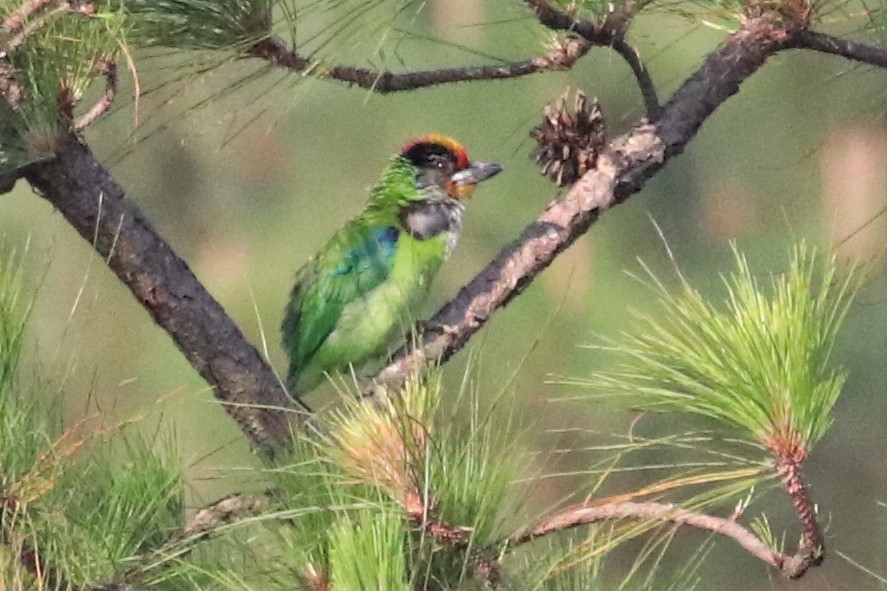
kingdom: Animalia
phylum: Chordata
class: Aves
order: Piciformes
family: Megalaimidae
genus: Psilopogon
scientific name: Psilopogon franklinii
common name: Golden-throated barbet
